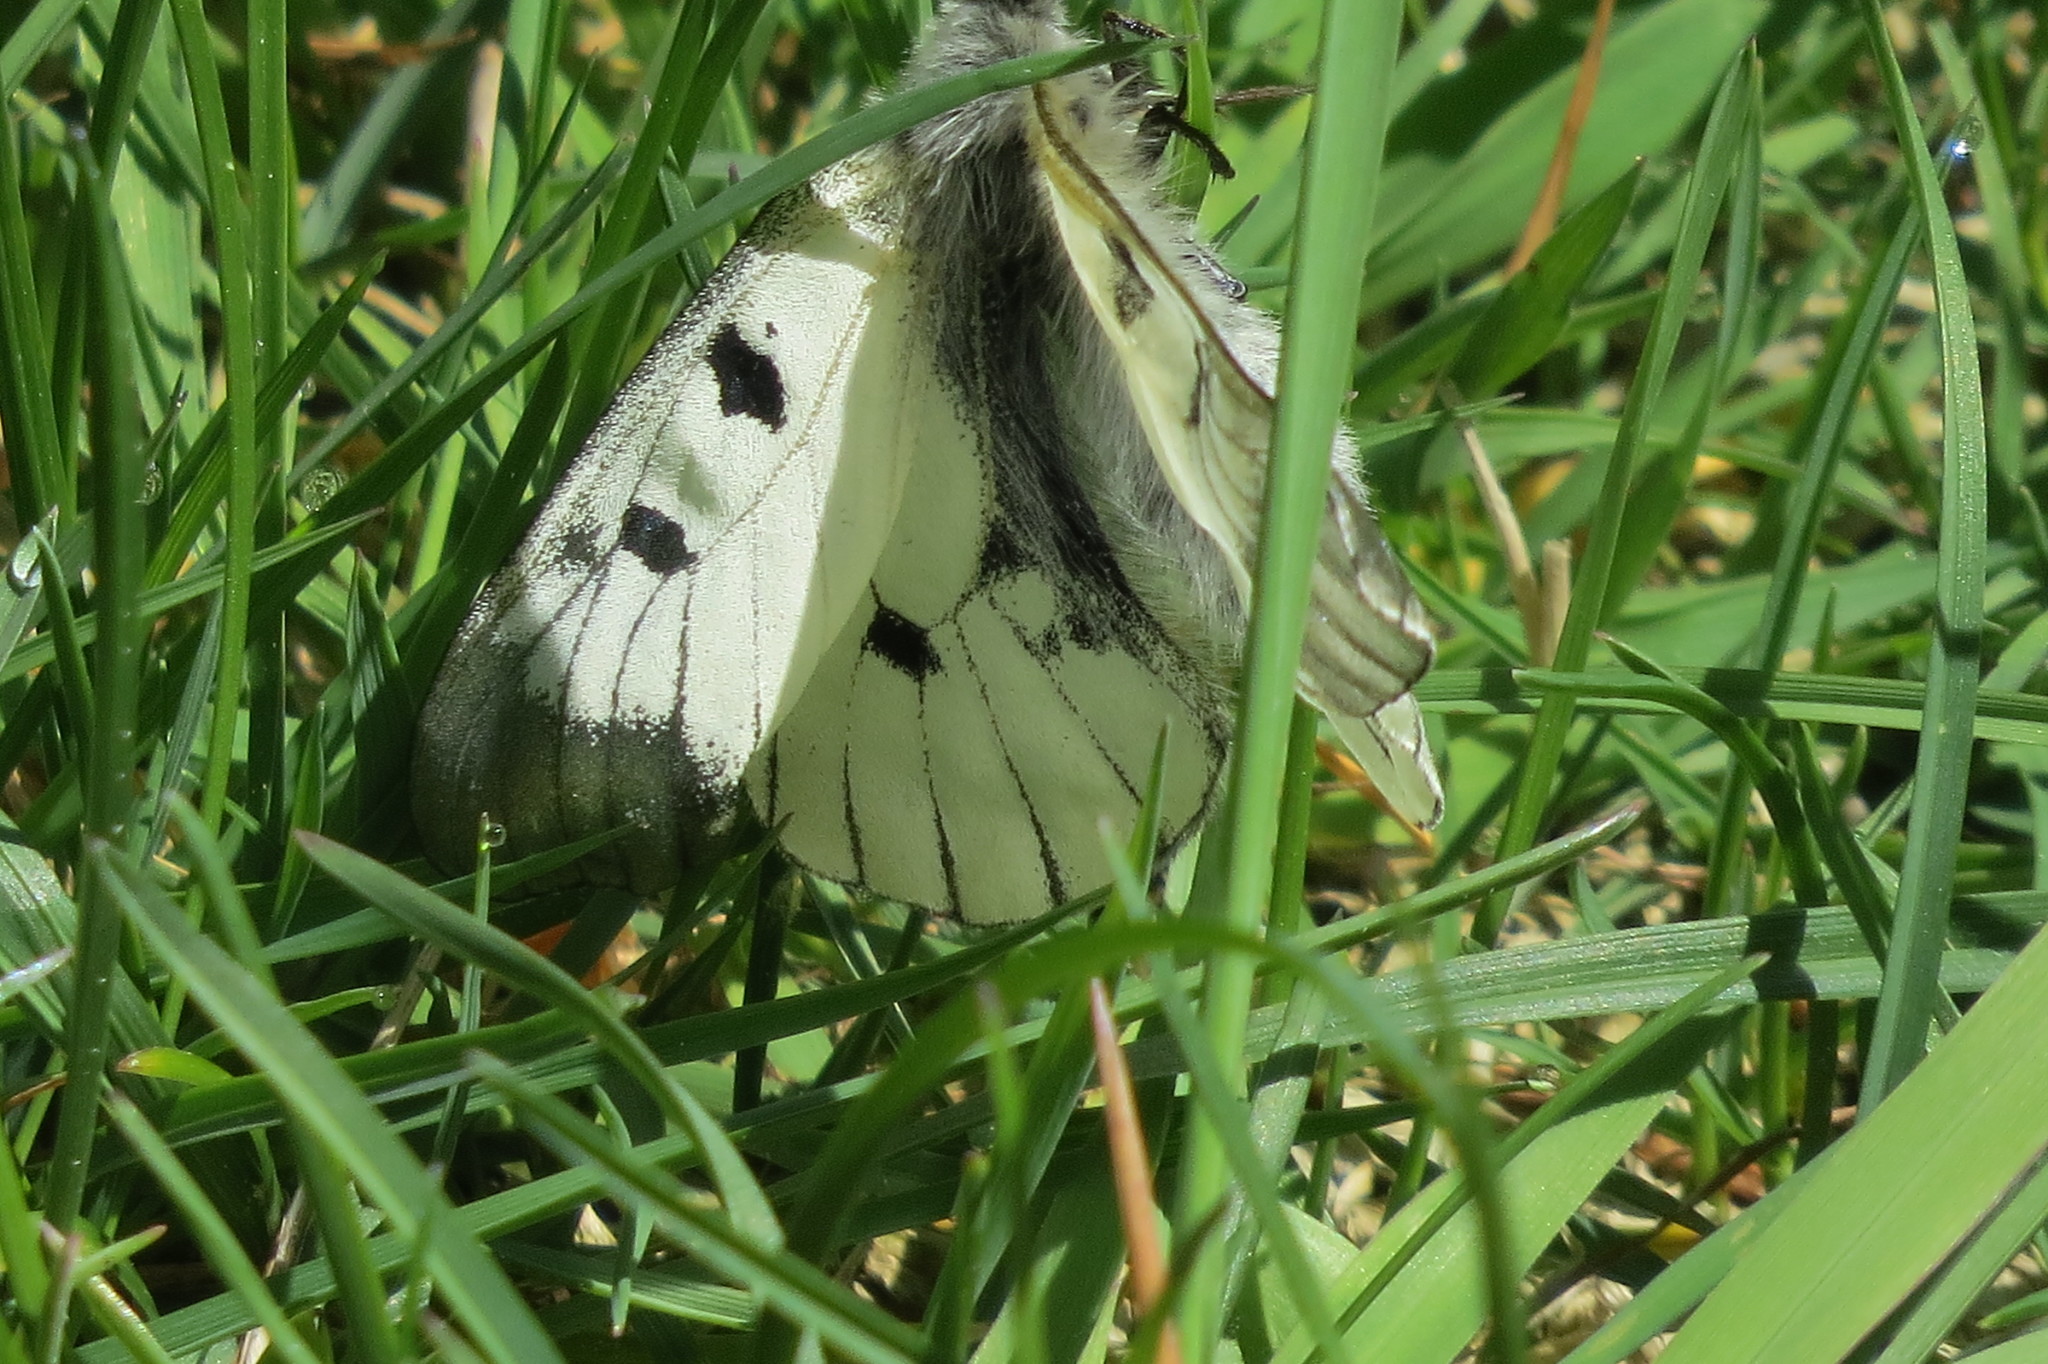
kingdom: Animalia
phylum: Arthropoda
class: Insecta
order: Lepidoptera
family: Papilionidae
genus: Parnassius
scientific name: Parnassius mnemosyne
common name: Clouded apollo
